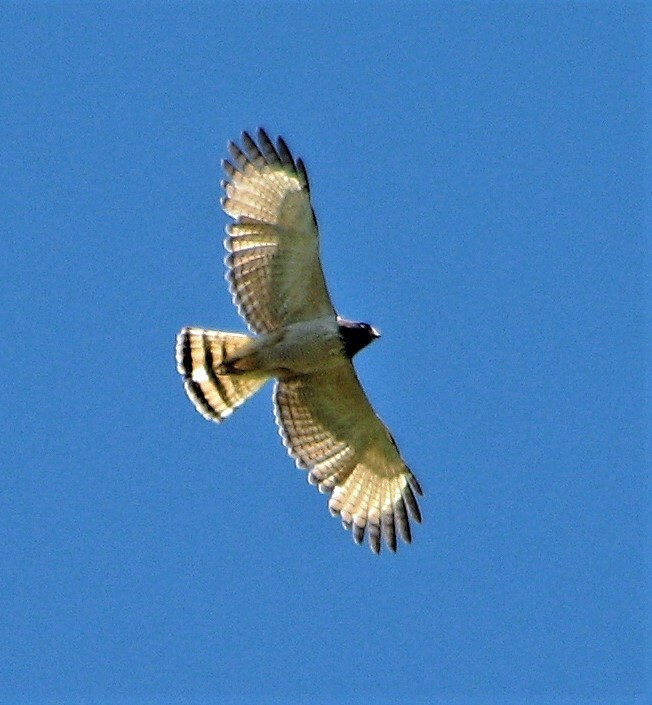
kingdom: Animalia
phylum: Chordata
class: Aves
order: Accipitriformes
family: Accipitridae
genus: Rupornis
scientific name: Rupornis magnirostris
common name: Roadside hawk
